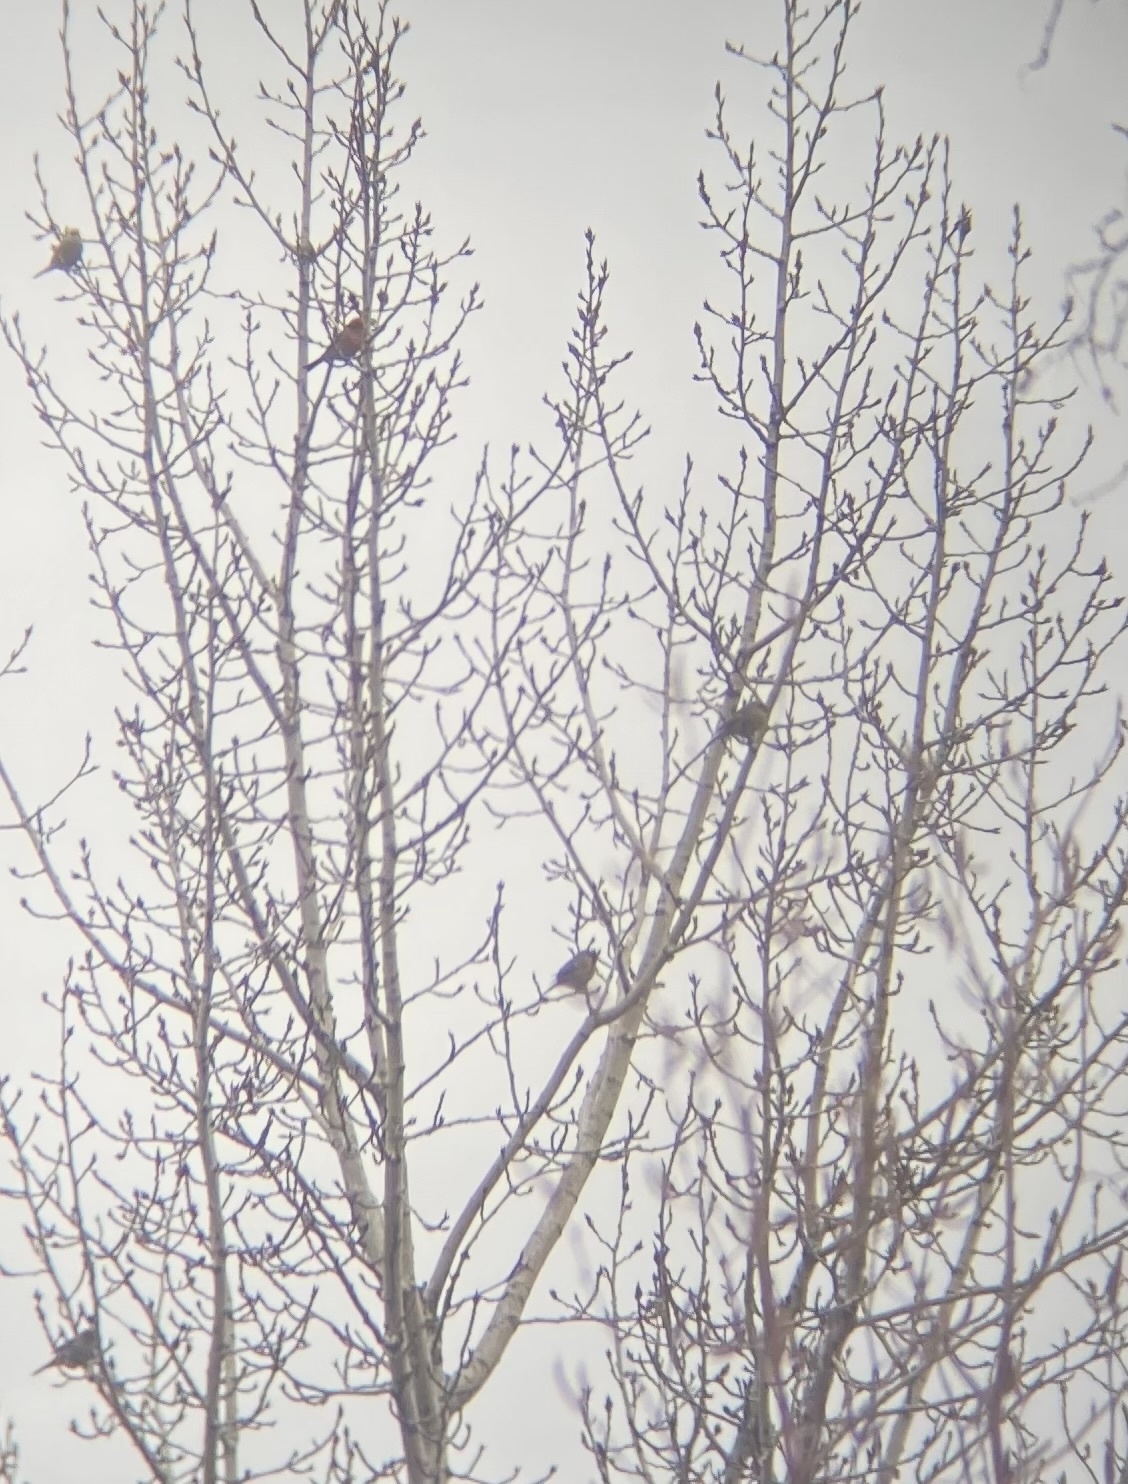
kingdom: Animalia
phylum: Chordata
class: Aves
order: Passeriformes
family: Fringillidae
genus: Pinicola
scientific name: Pinicola enucleator
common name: Pine grosbeak
